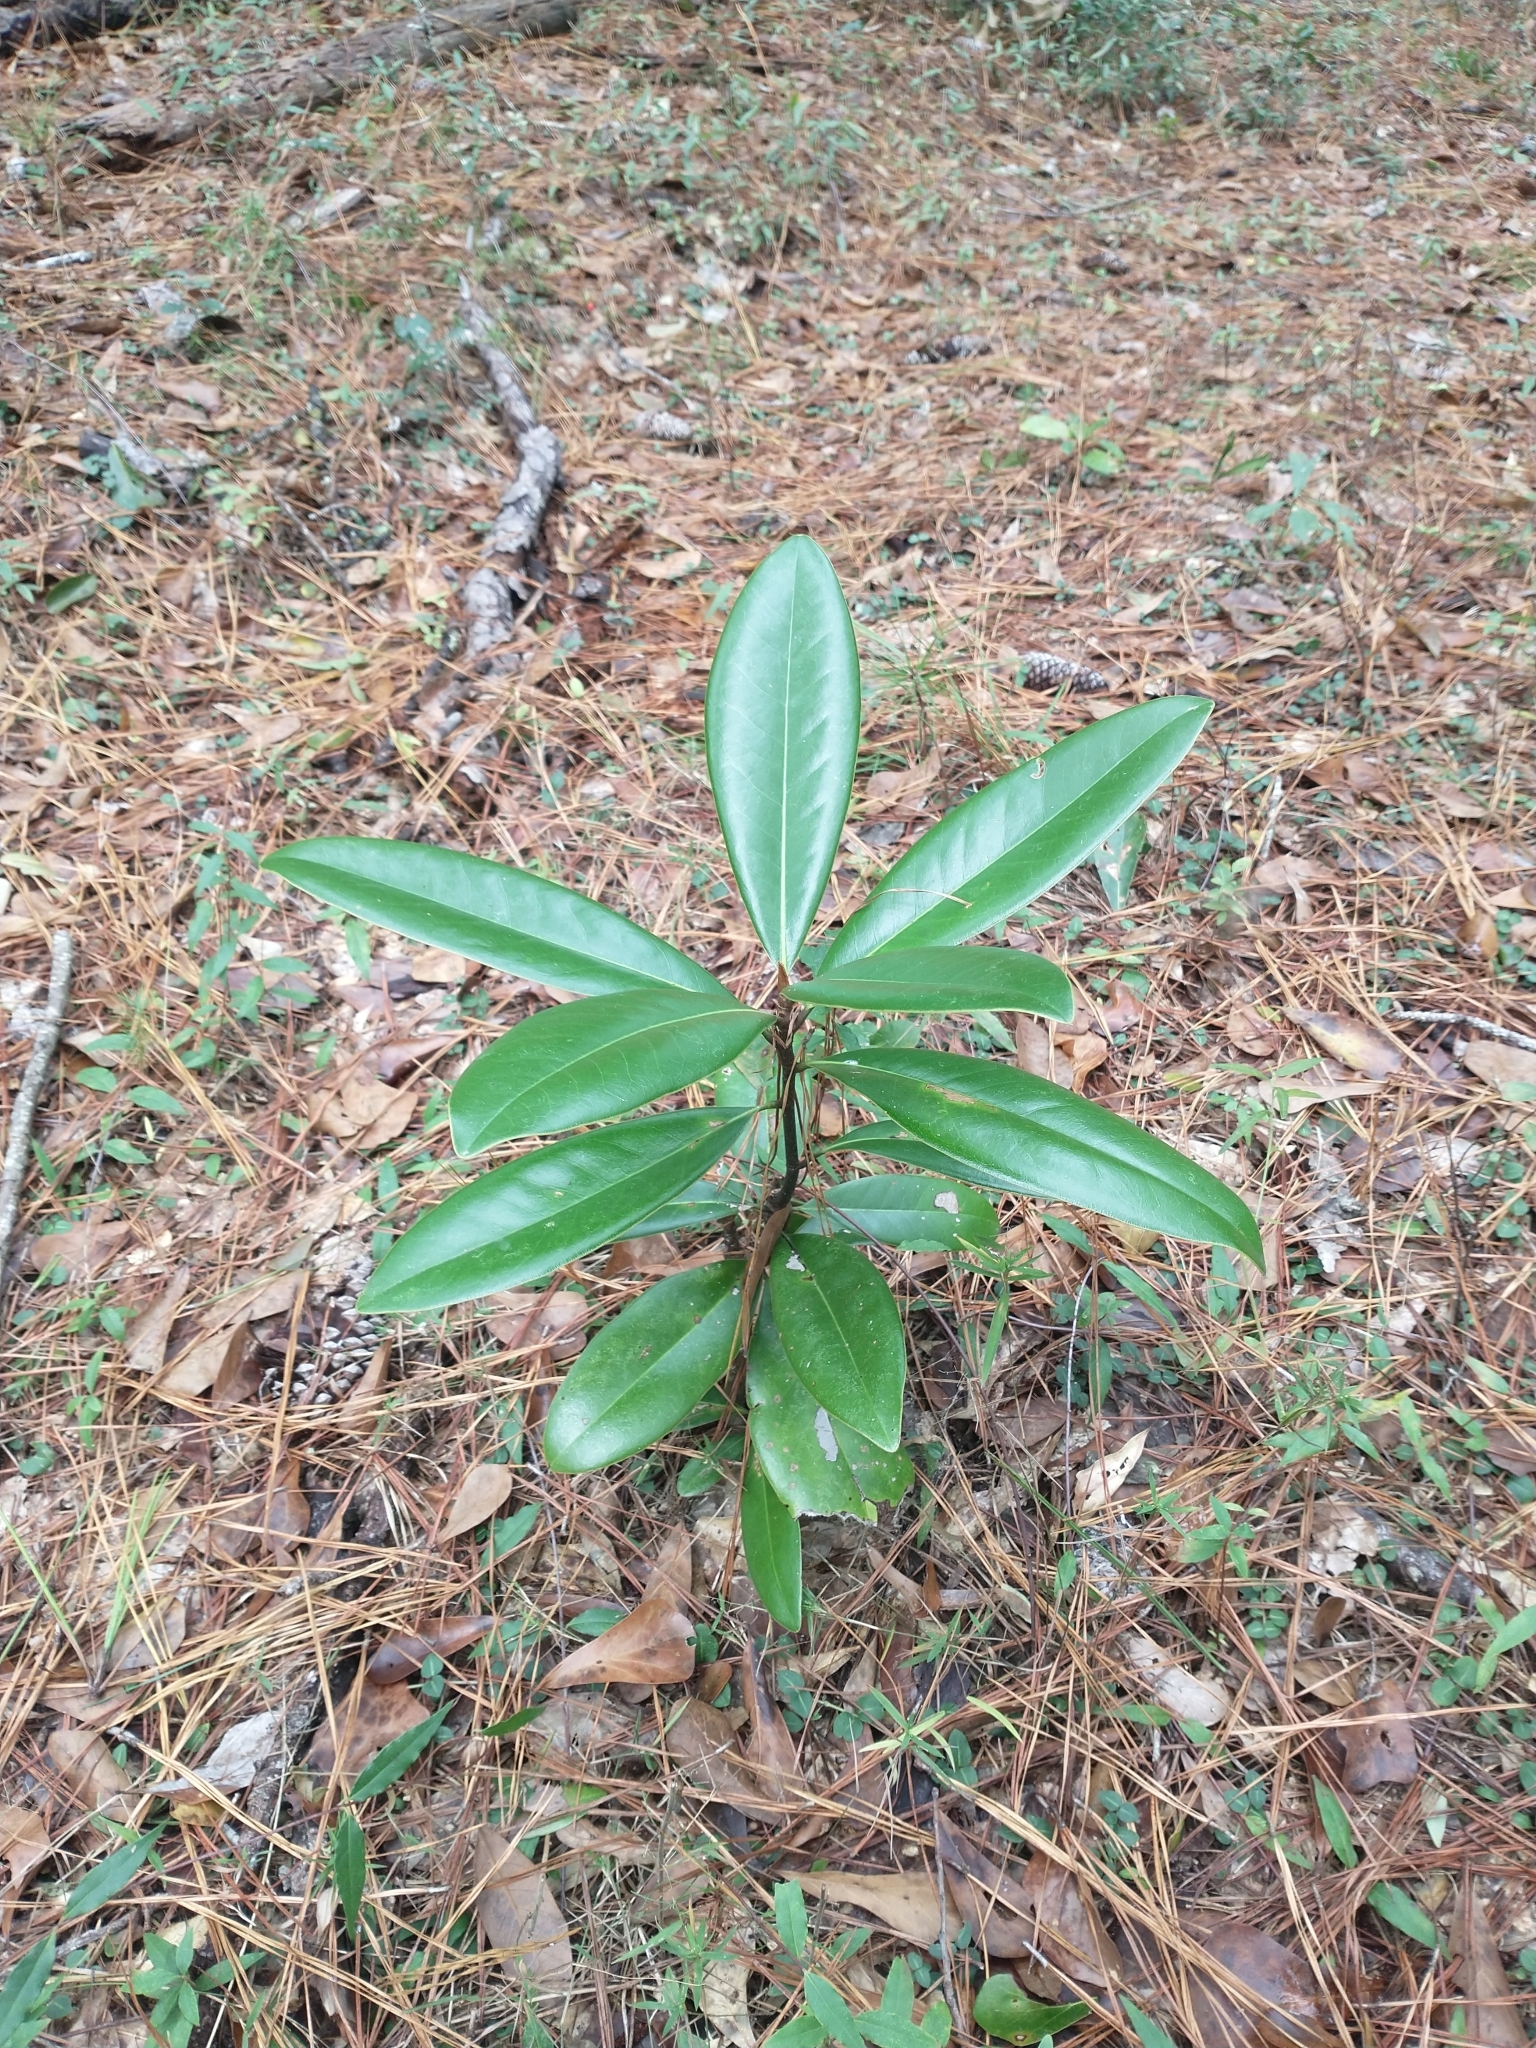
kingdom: Plantae
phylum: Tracheophyta
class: Magnoliopsida
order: Magnoliales
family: Magnoliaceae
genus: Magnolia
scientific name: Magnolia grandiflora
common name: Southern magnolia
